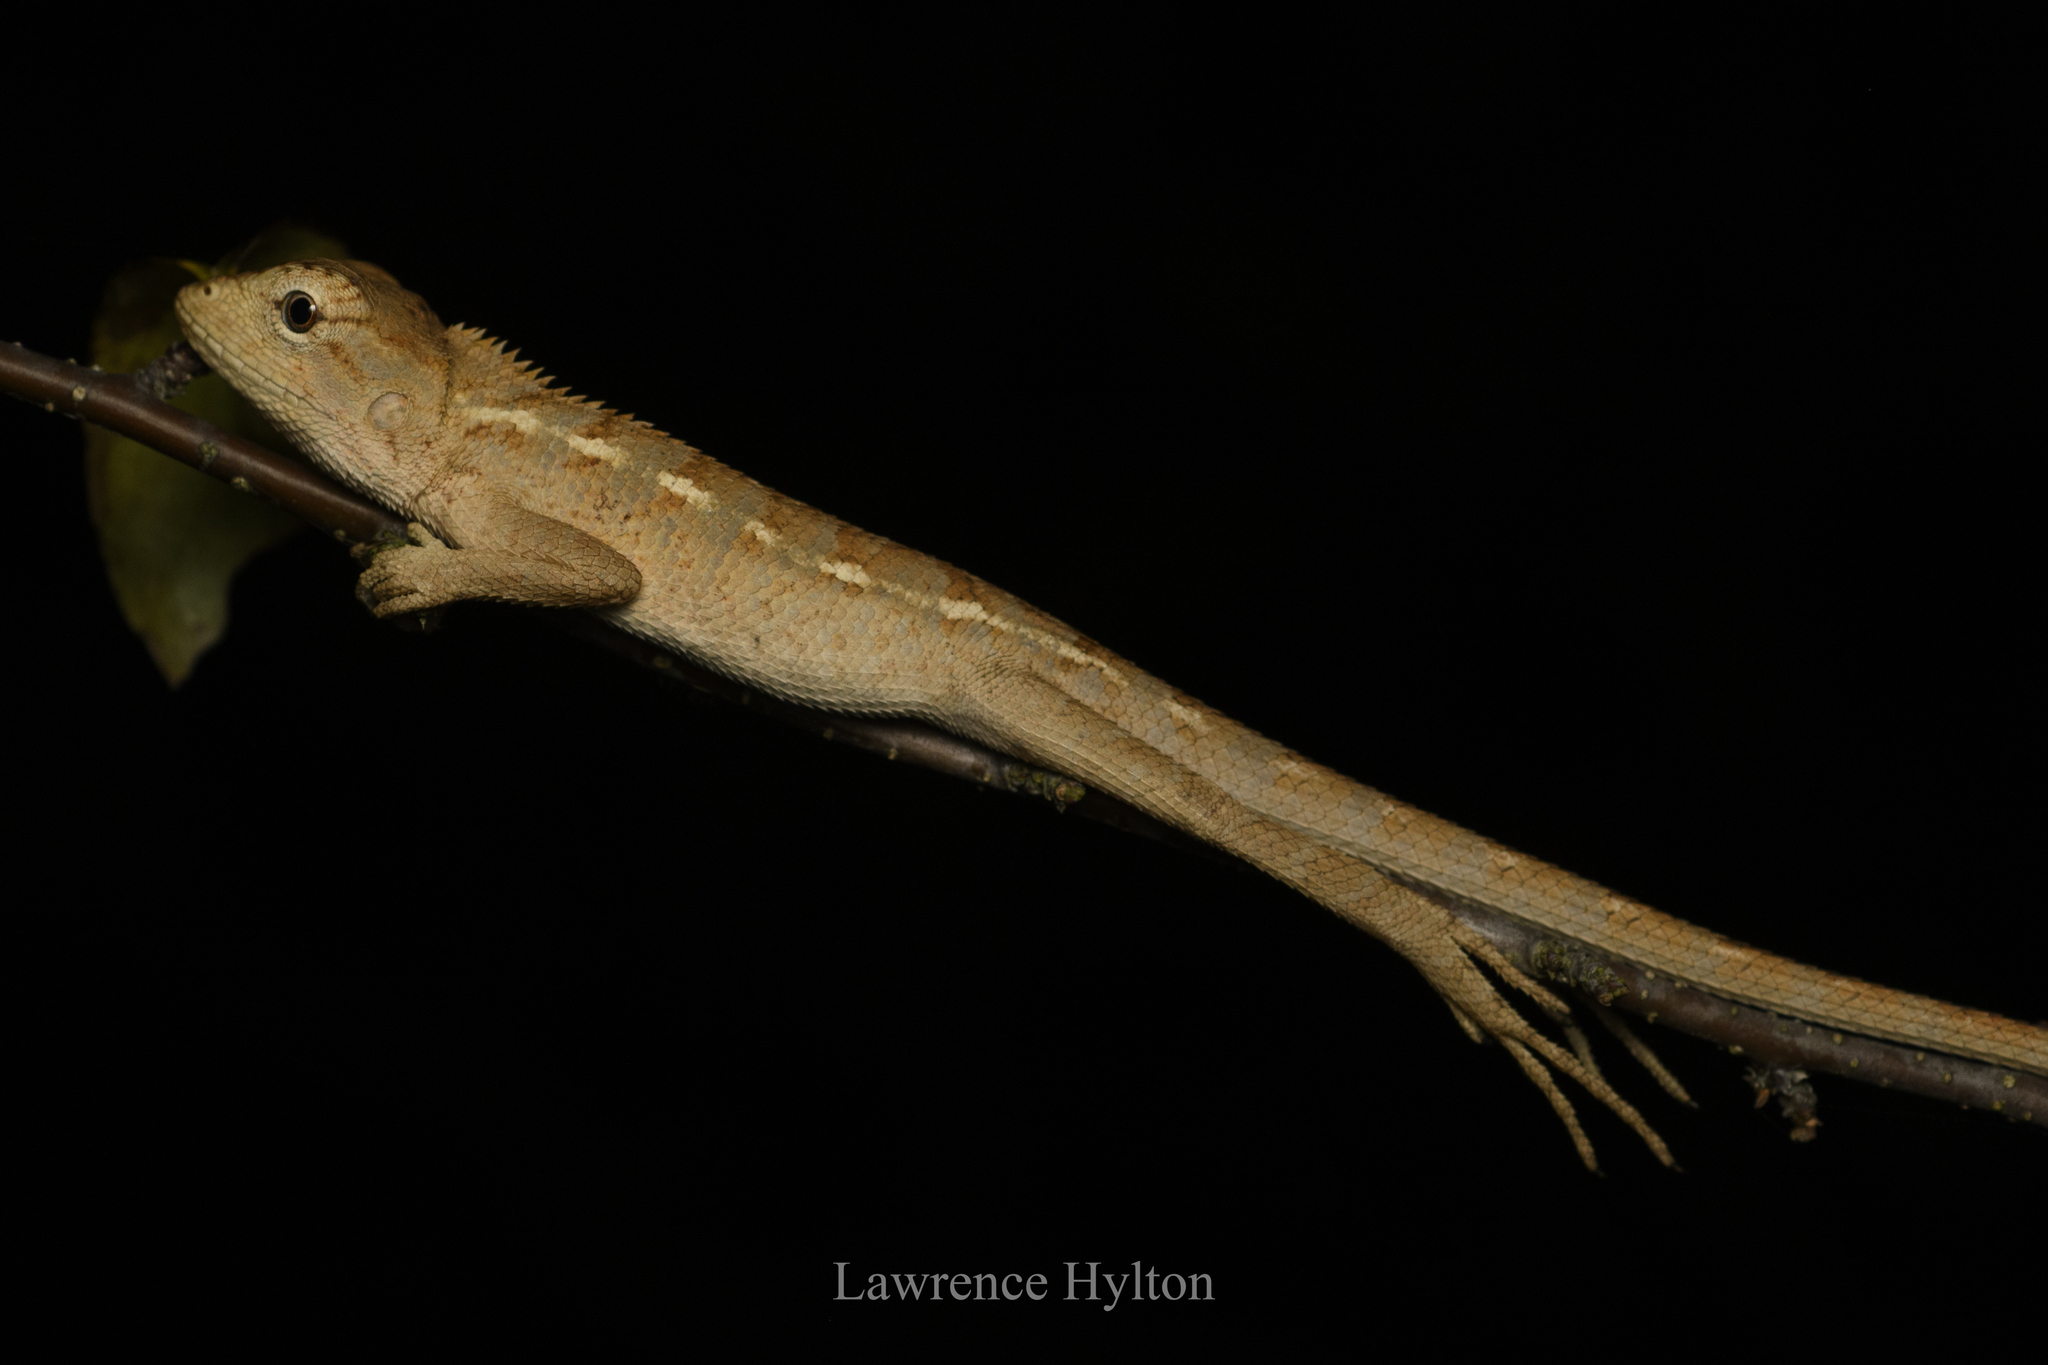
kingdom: Animalia
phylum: Chordata
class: Squamata
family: Agamidae
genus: Calotes
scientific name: Calotes versicolor
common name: Oriental garden lizard
